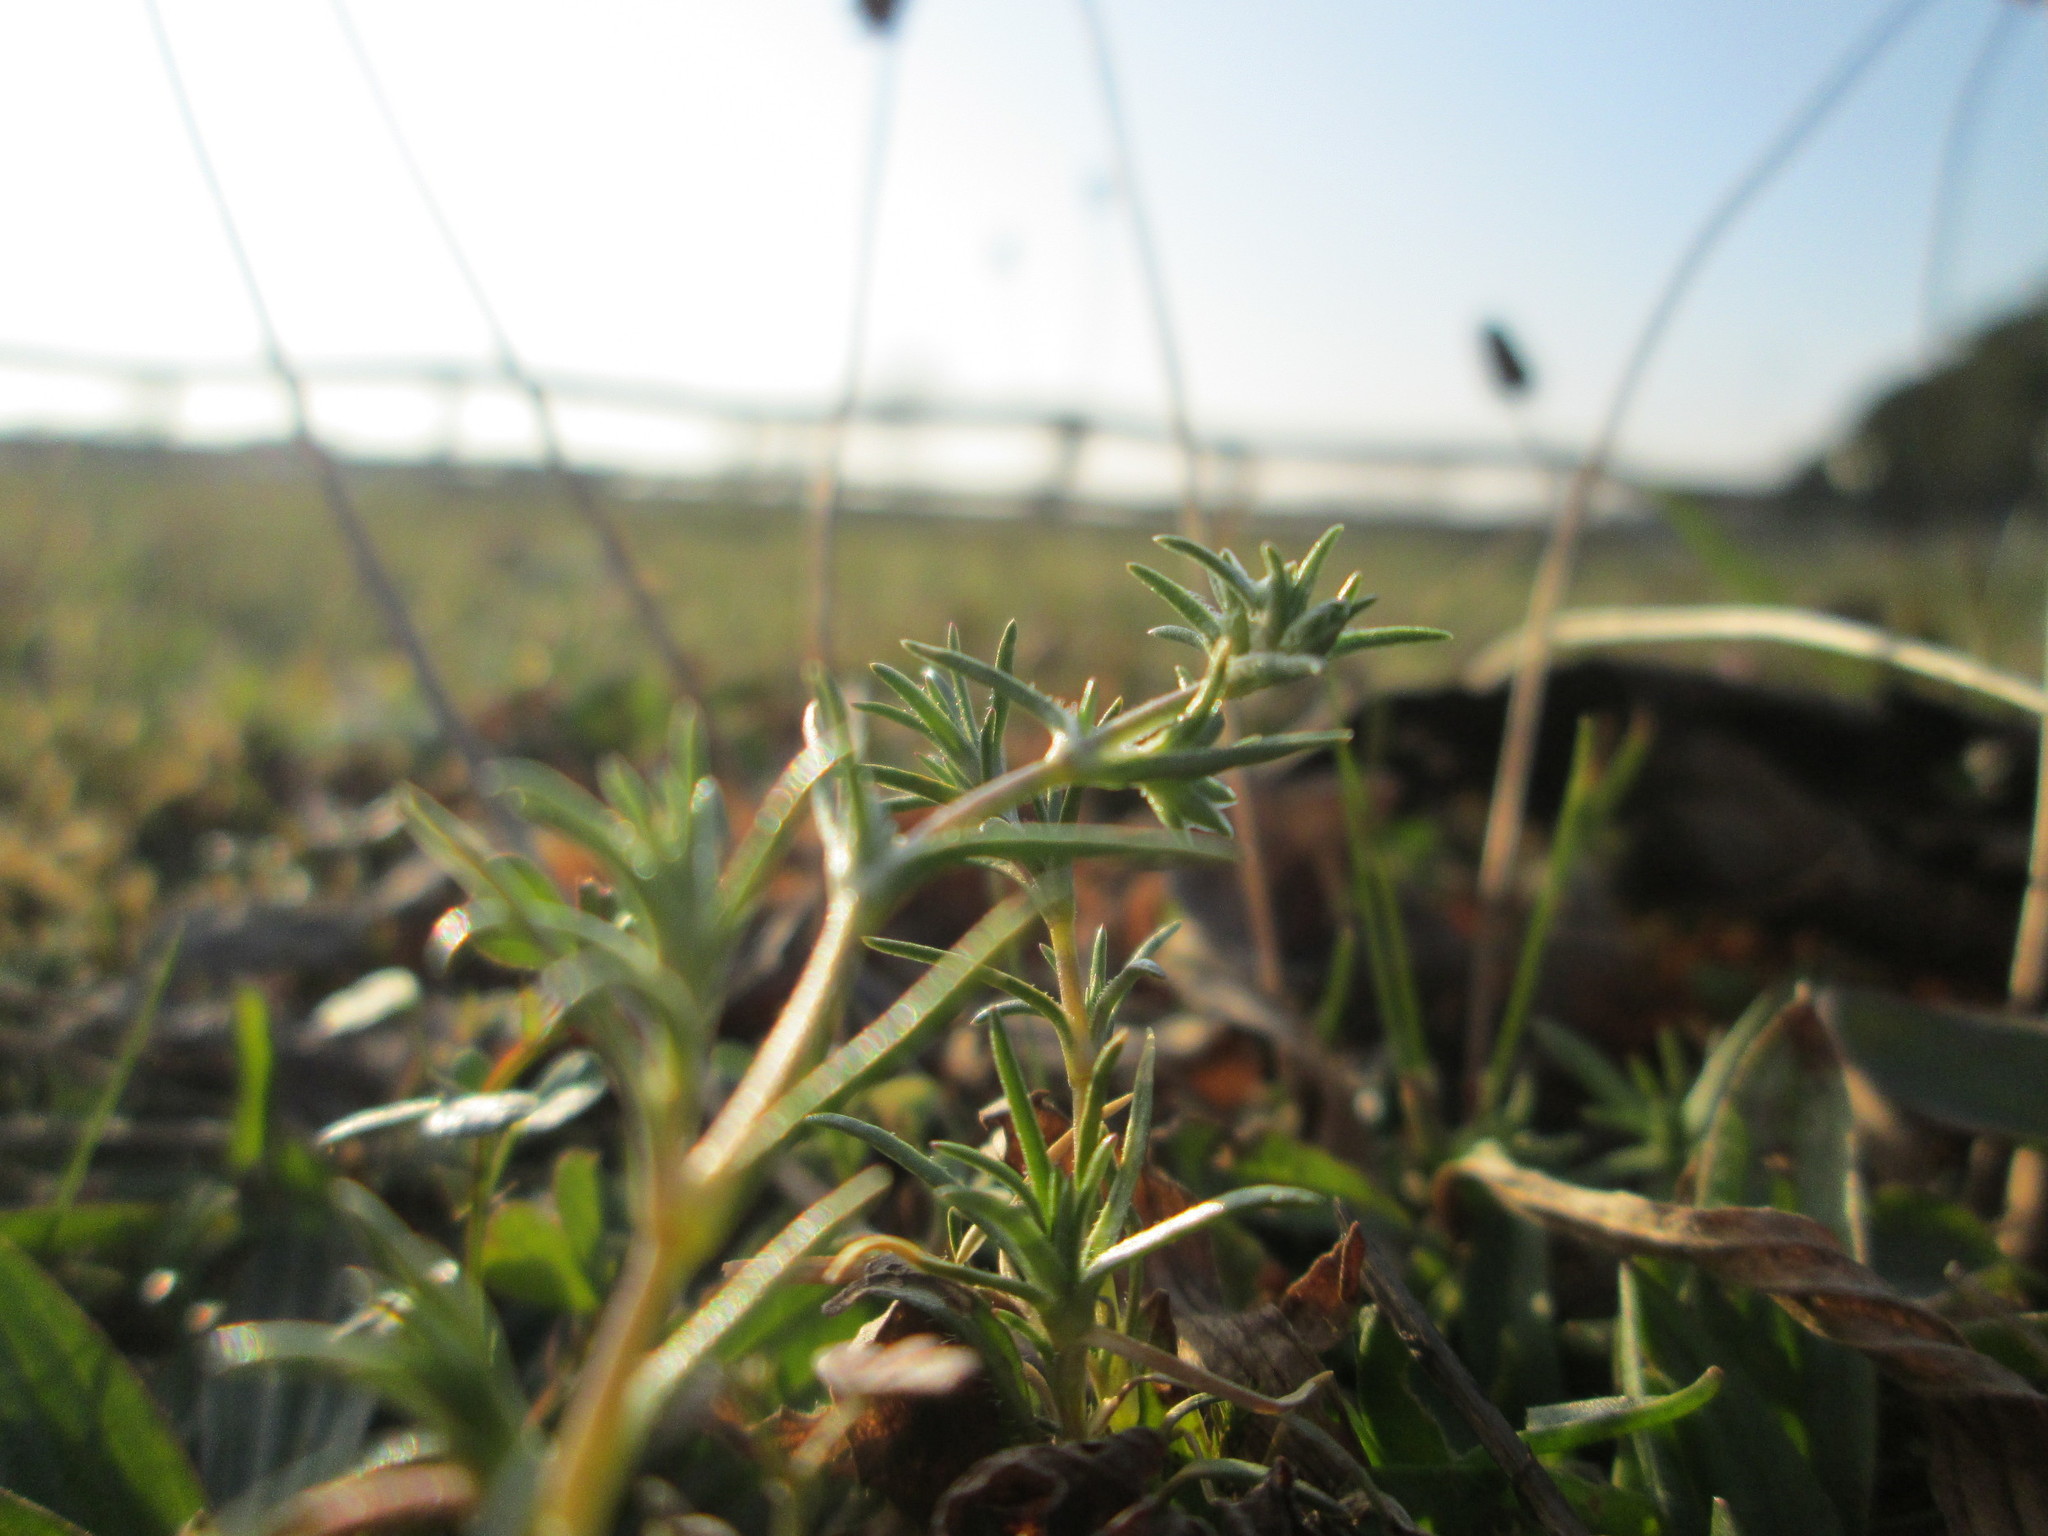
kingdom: Plantae
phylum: Tracheophyta
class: Magnoliopsida
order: Caryophyllales
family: Caryophyllaceae
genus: Scleranthus
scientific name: Scleranthus annuus
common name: Annual knawel
